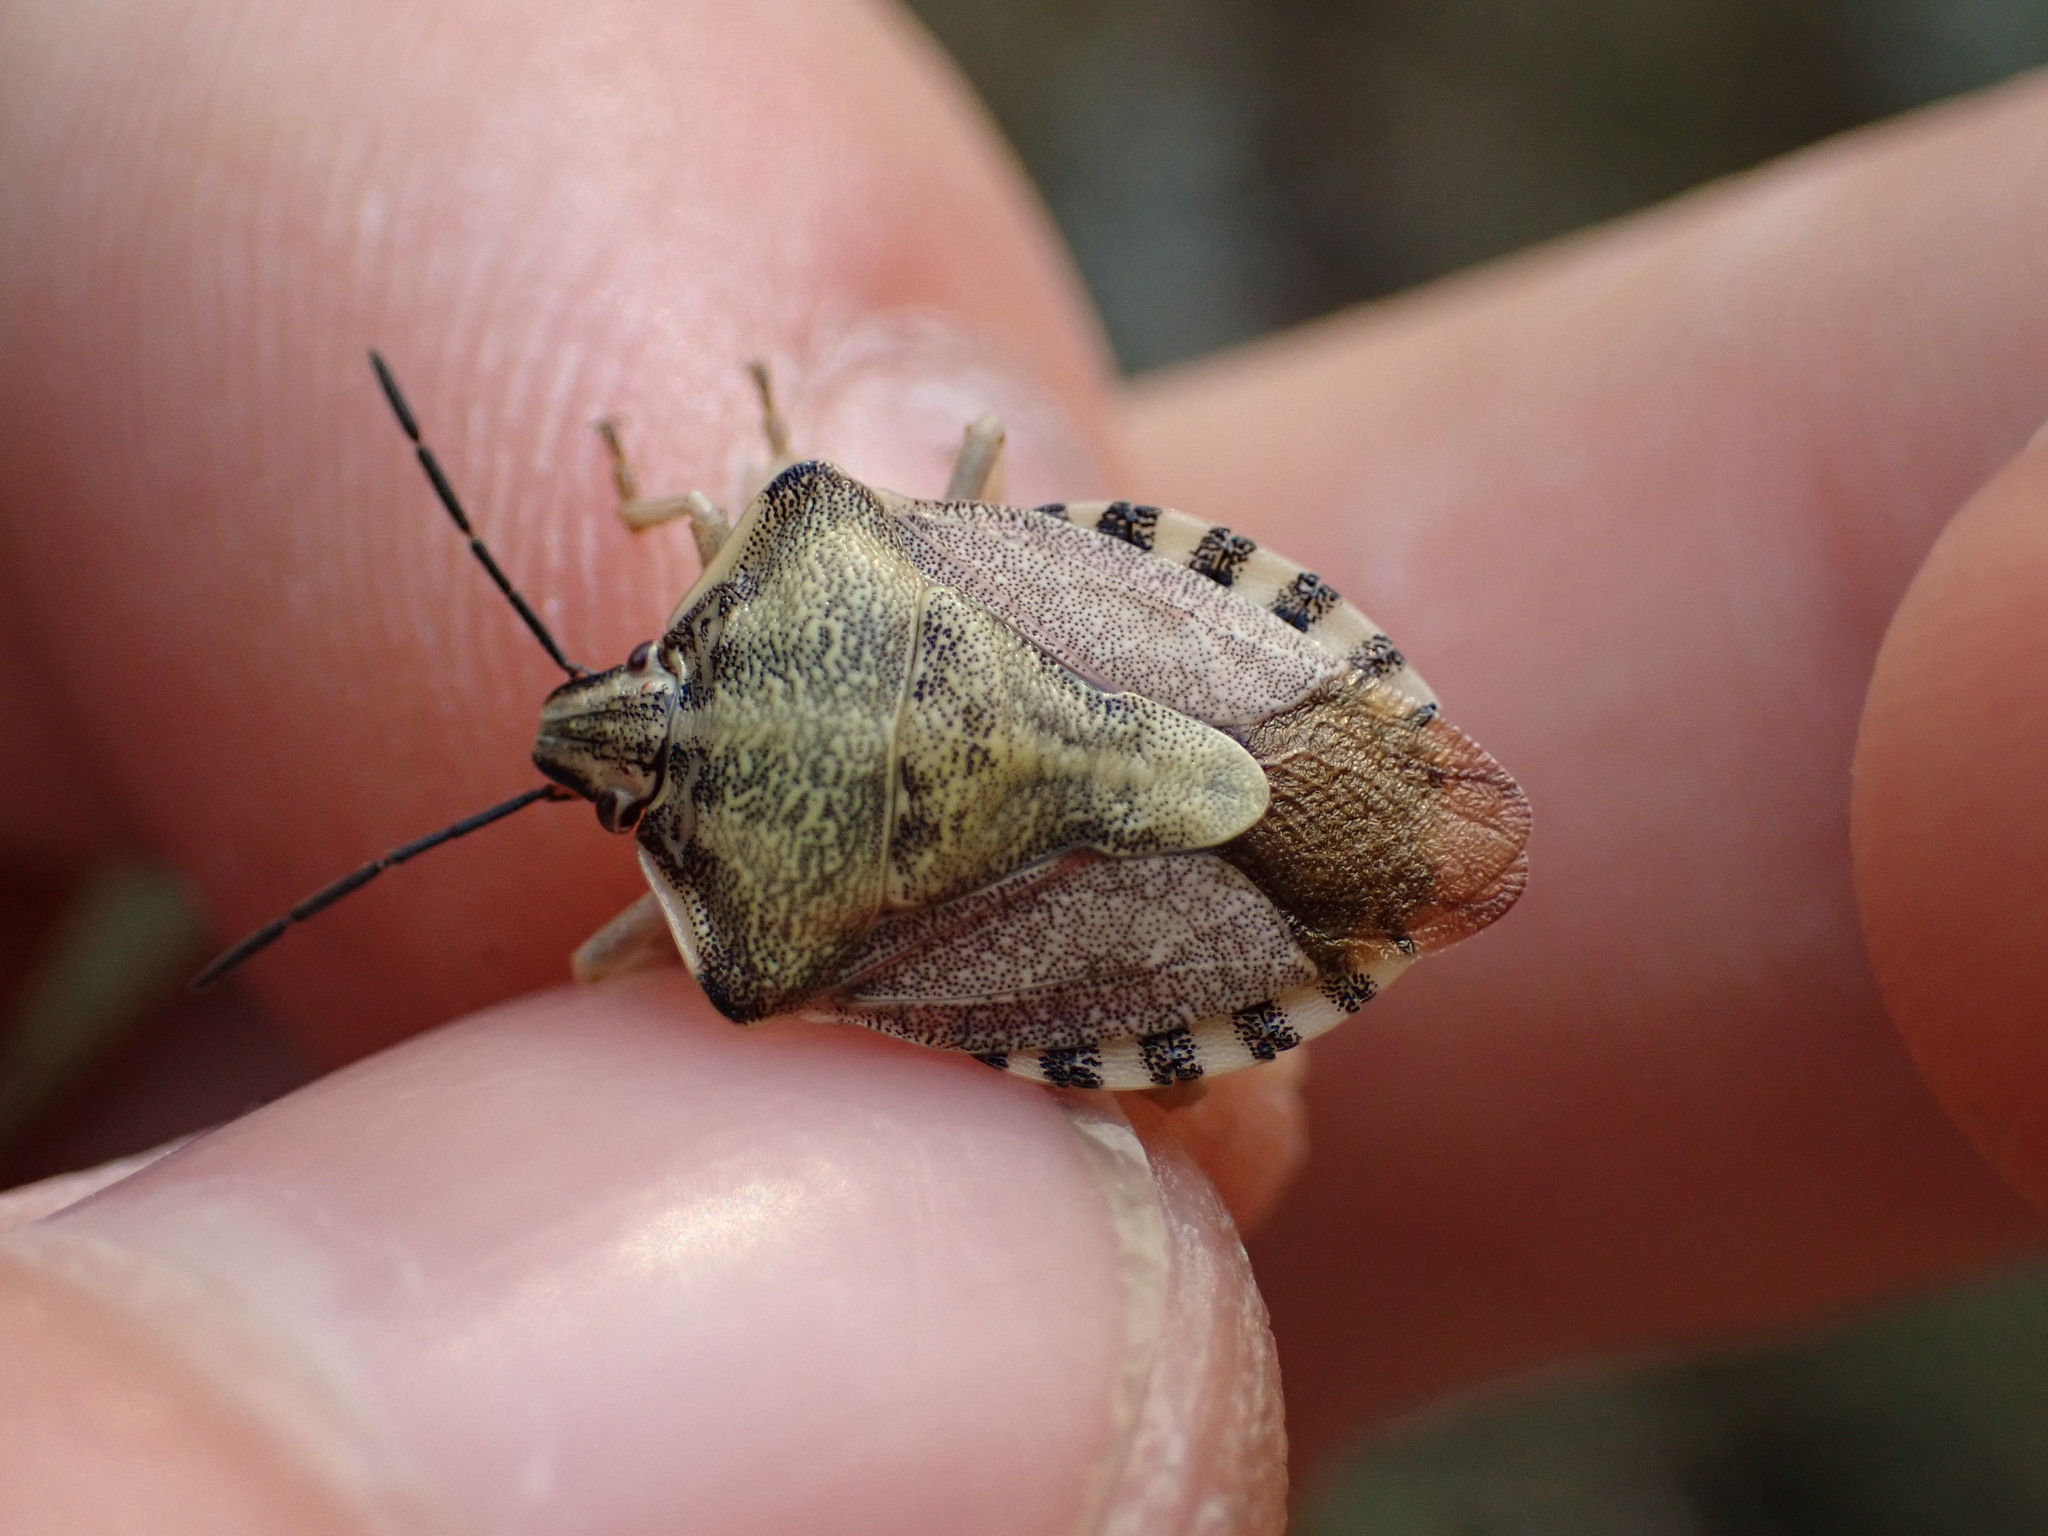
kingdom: Animalia
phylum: Arthropoda
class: Insecta
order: Hemiptera
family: Pentatomidae
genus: Carpocoris
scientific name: Carpocoris purpureipennis
